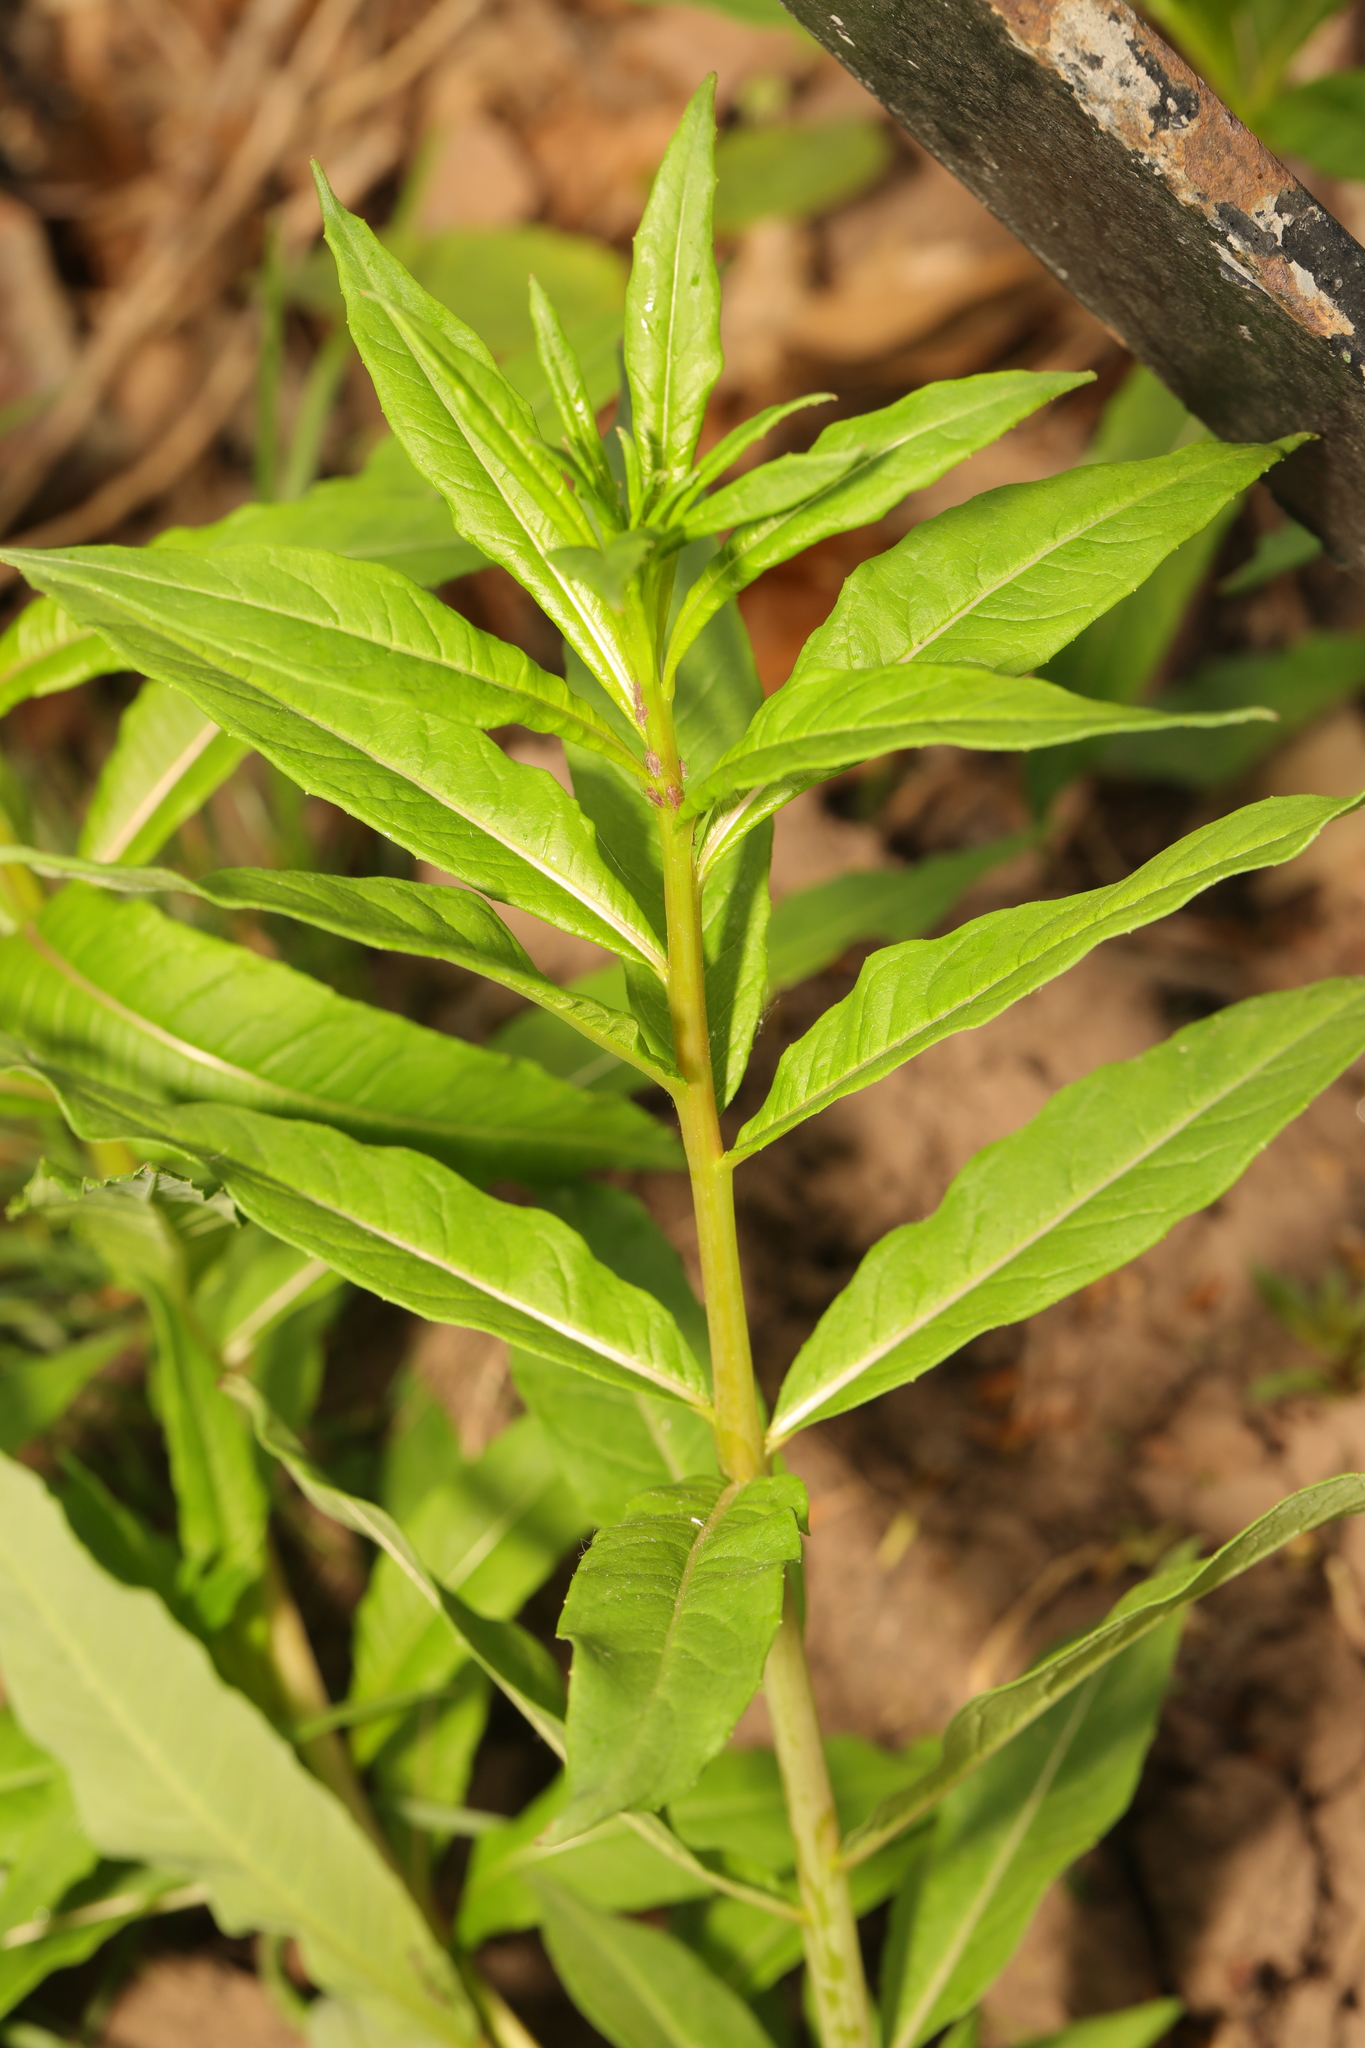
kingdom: Plantae
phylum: Tracheophyta
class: Magnoliopsida
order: Myrtales
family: Onagraceae
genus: Chamaenerion
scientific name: Chamaenerion angustifolium
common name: Fireweed
